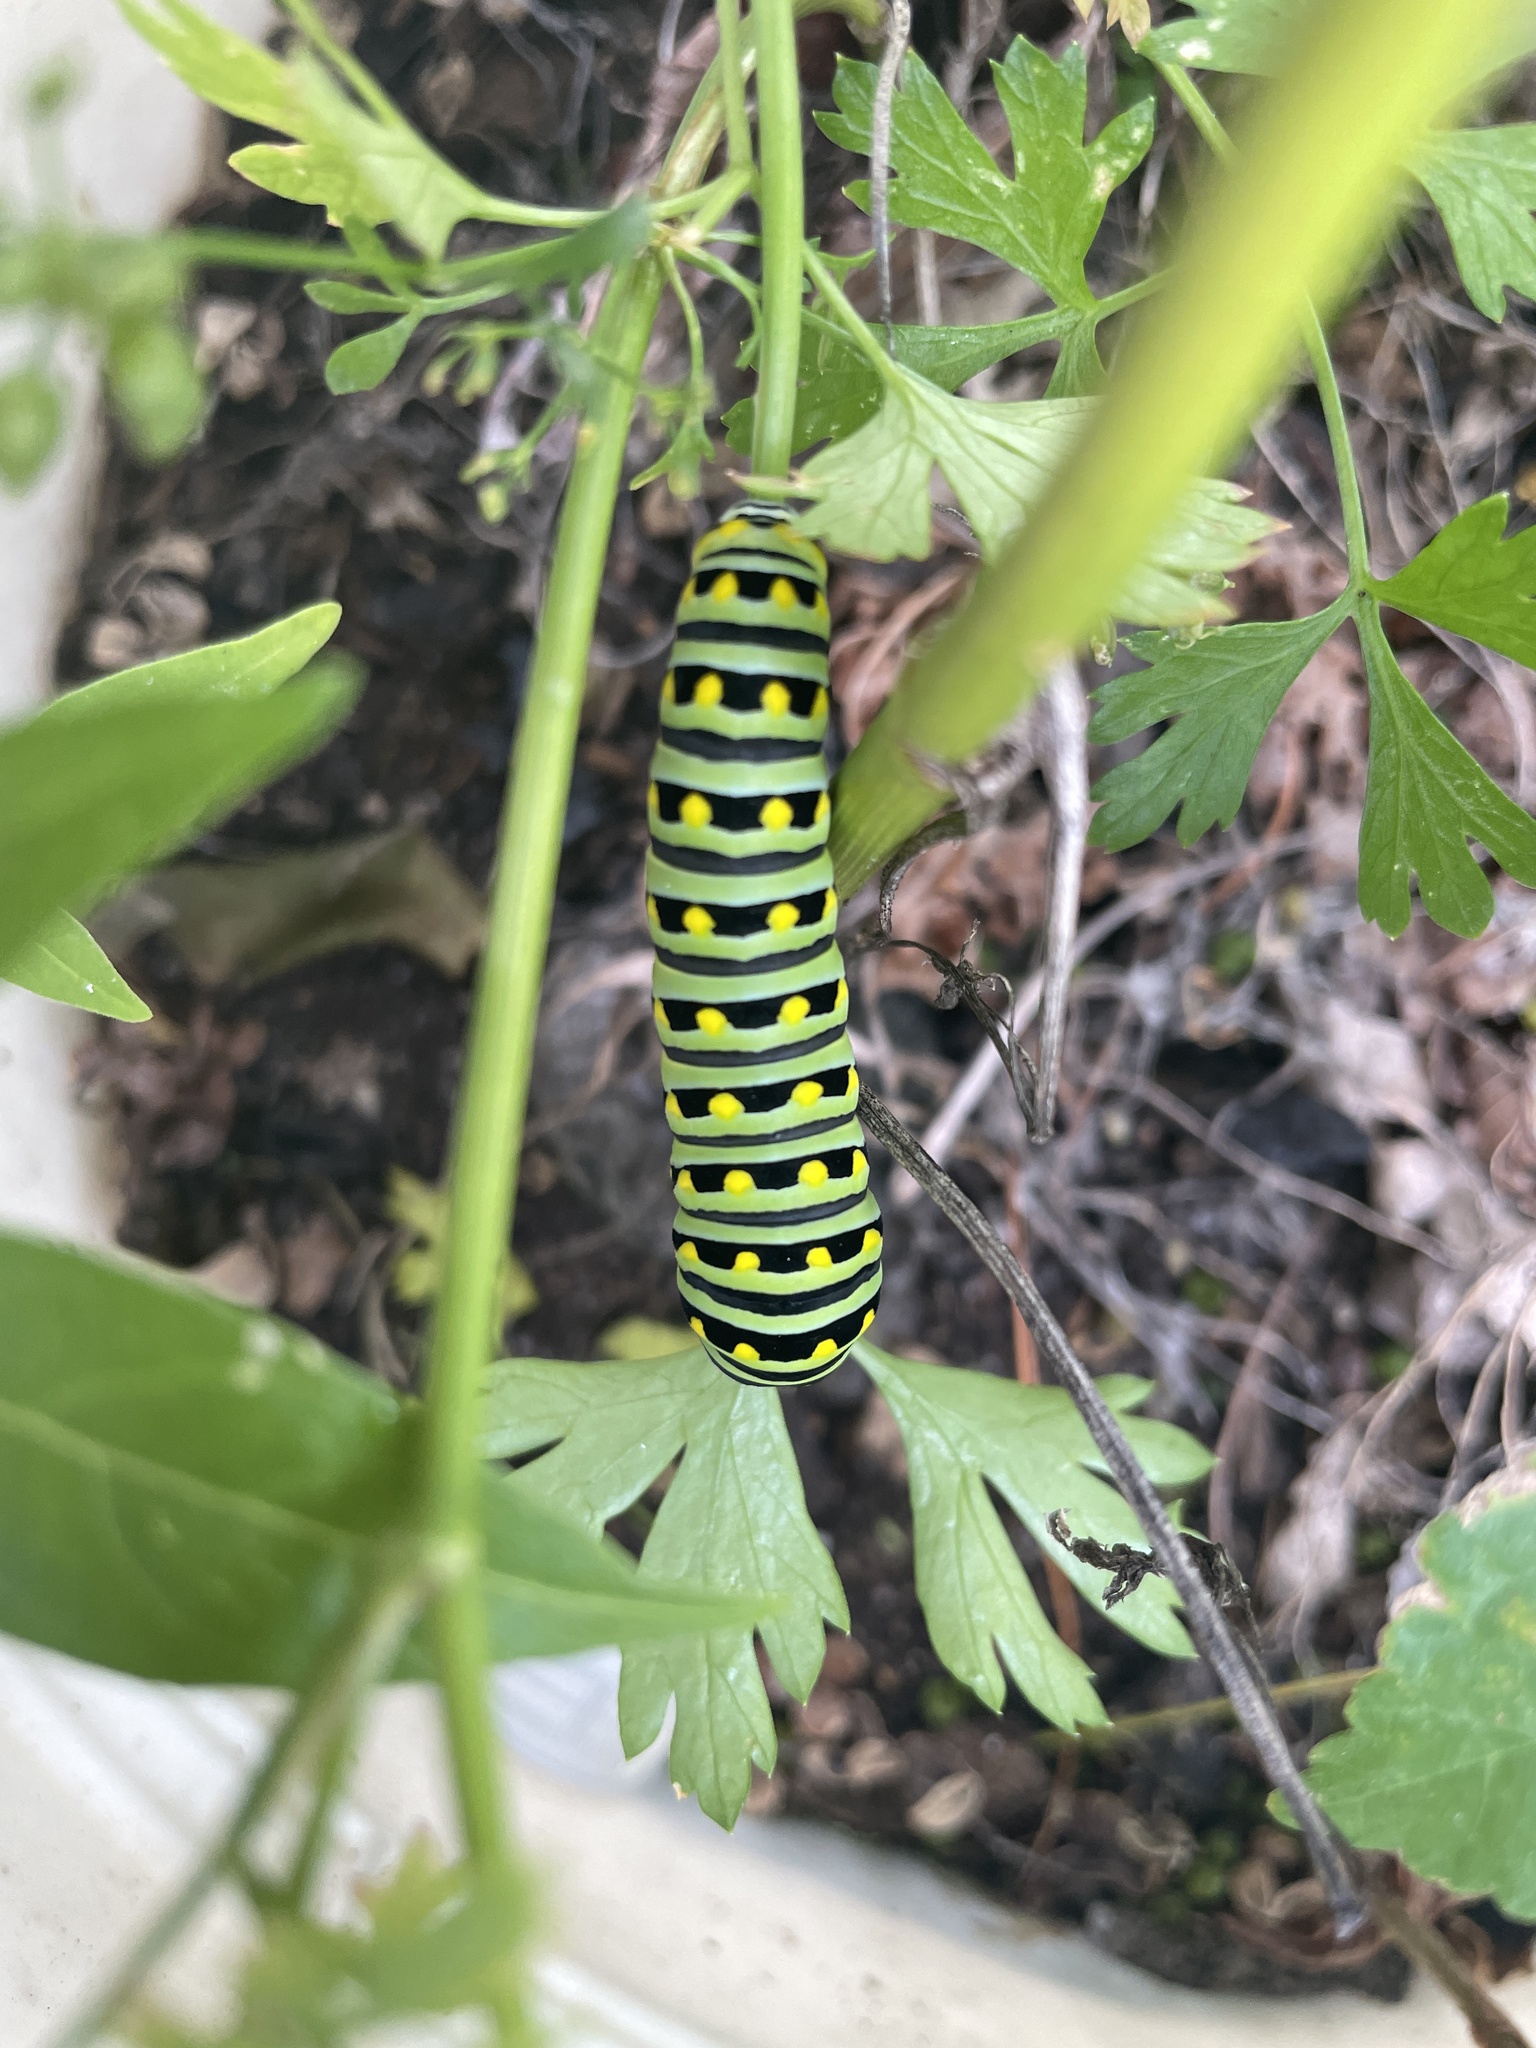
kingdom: Animalia
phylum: Arthropoda
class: Insecta
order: Lepidoptera
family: Papilionidae
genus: Papilio
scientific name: Papilio polyxenes
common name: Black swallowtail
